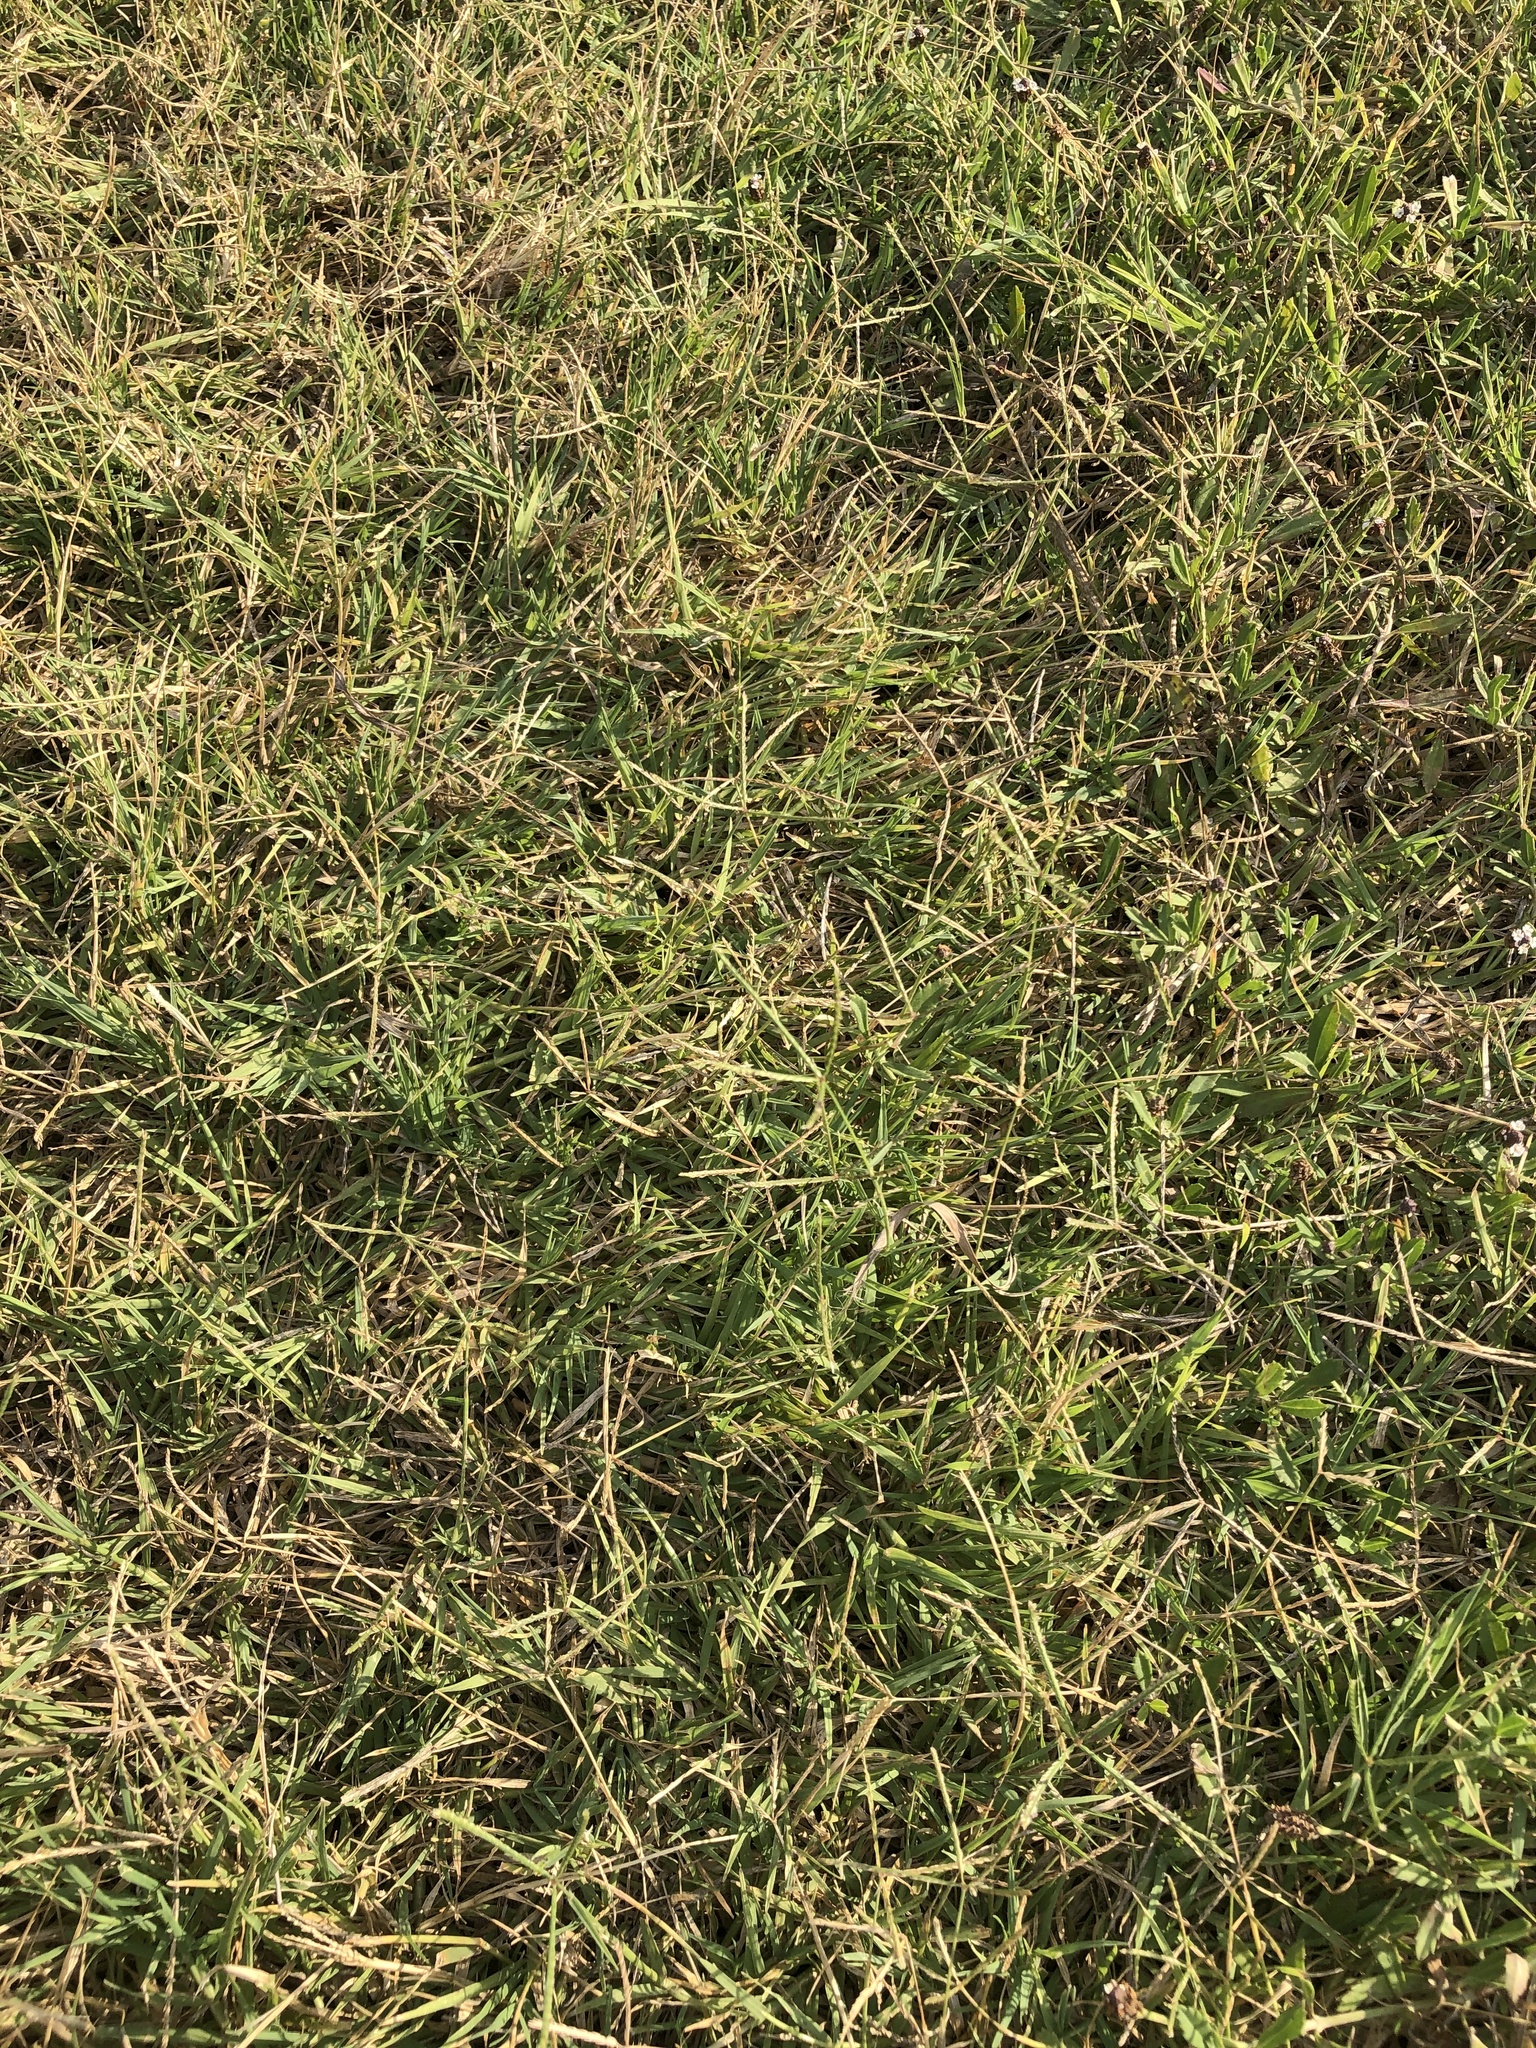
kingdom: Plantae
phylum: Tracheophyta
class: Liliopsida
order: Poales
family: Poaceae
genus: Cynodon
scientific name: Cynodon dactylon
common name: Bermuda grass
